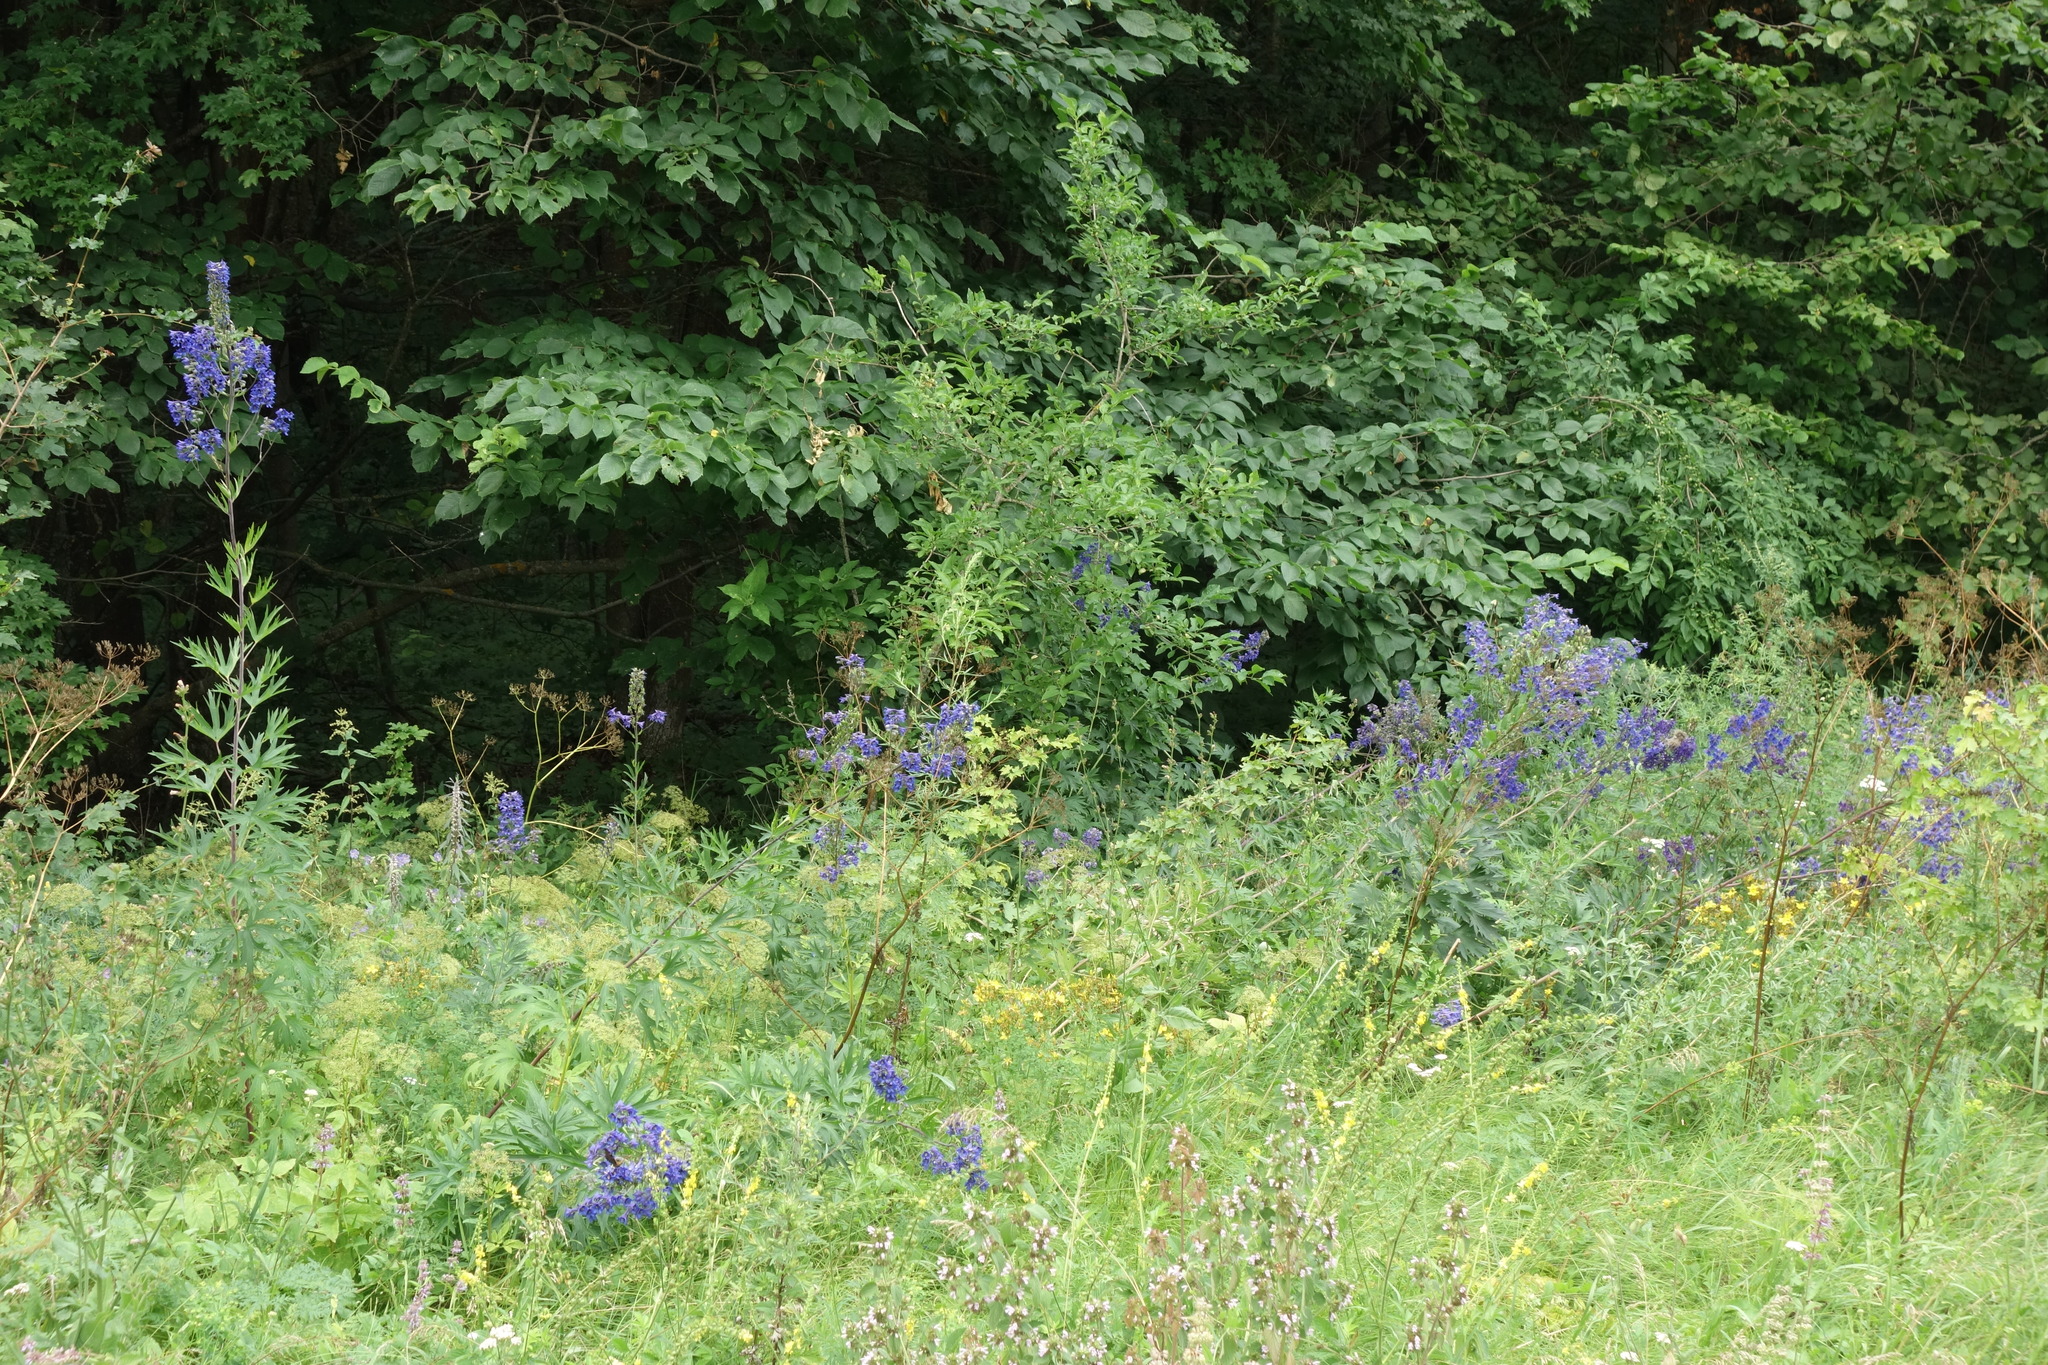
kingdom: Plantae
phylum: Tracheophyta
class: Magnoliopsida
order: Ranunculales
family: Ranunculaceae
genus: Delphinium
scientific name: Delphinium cuneatum
